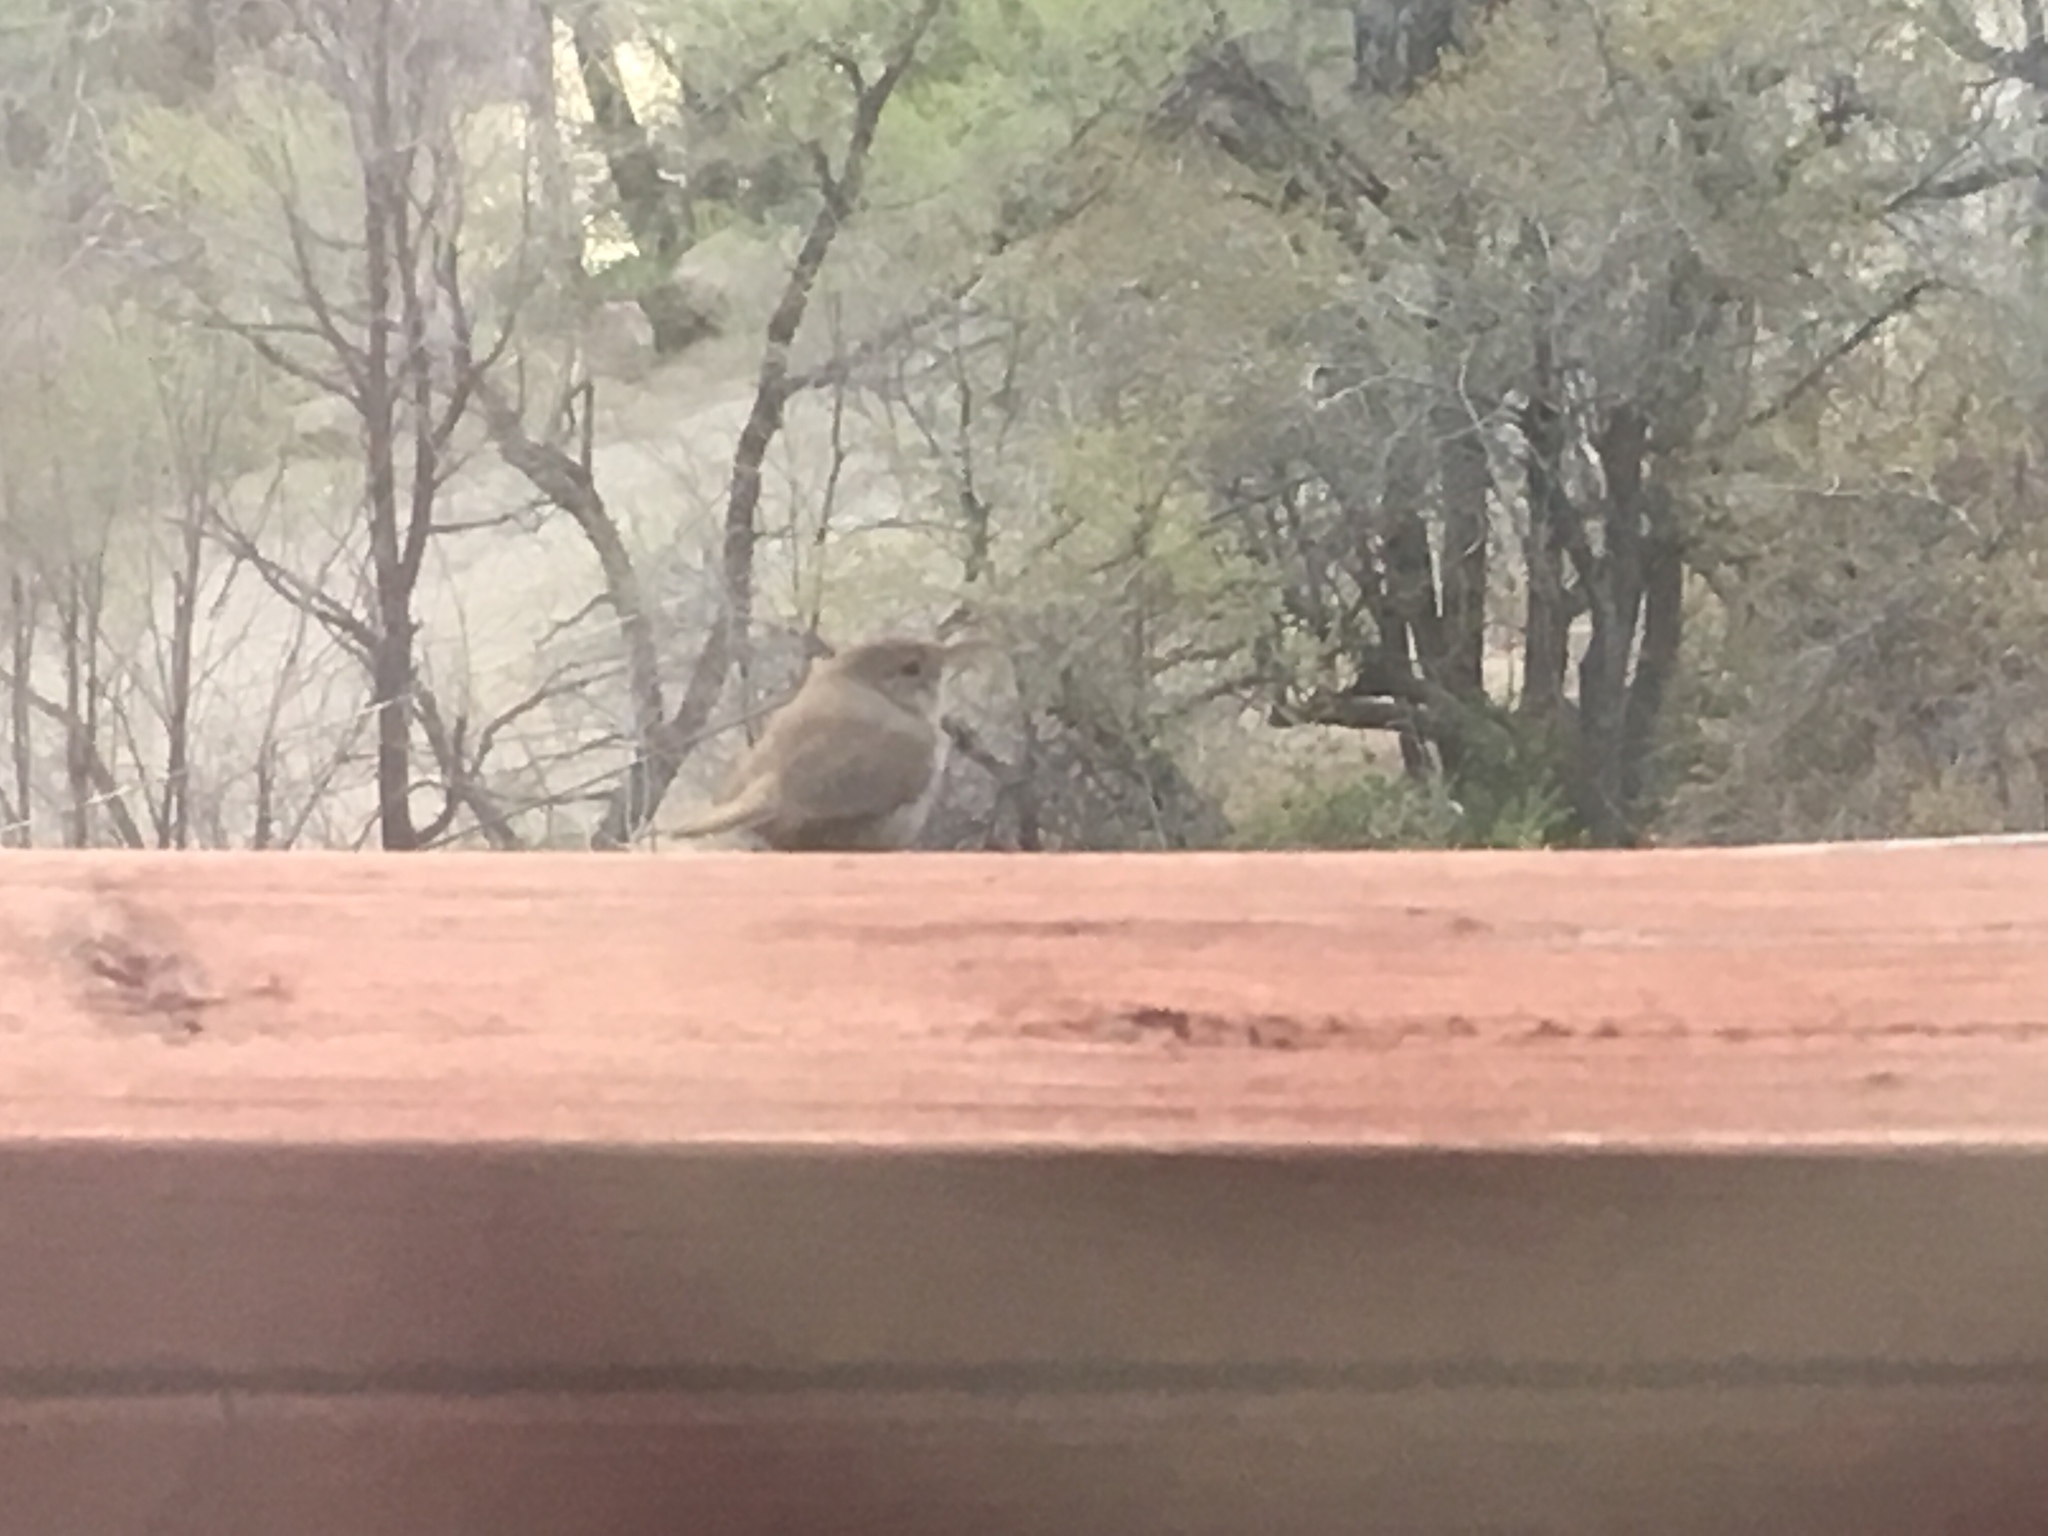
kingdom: Animalia
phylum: Chordata
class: Aves
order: Passeriformes
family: Troglodytidae
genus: Troglodytes
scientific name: Troglodytes aedon
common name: House wren
